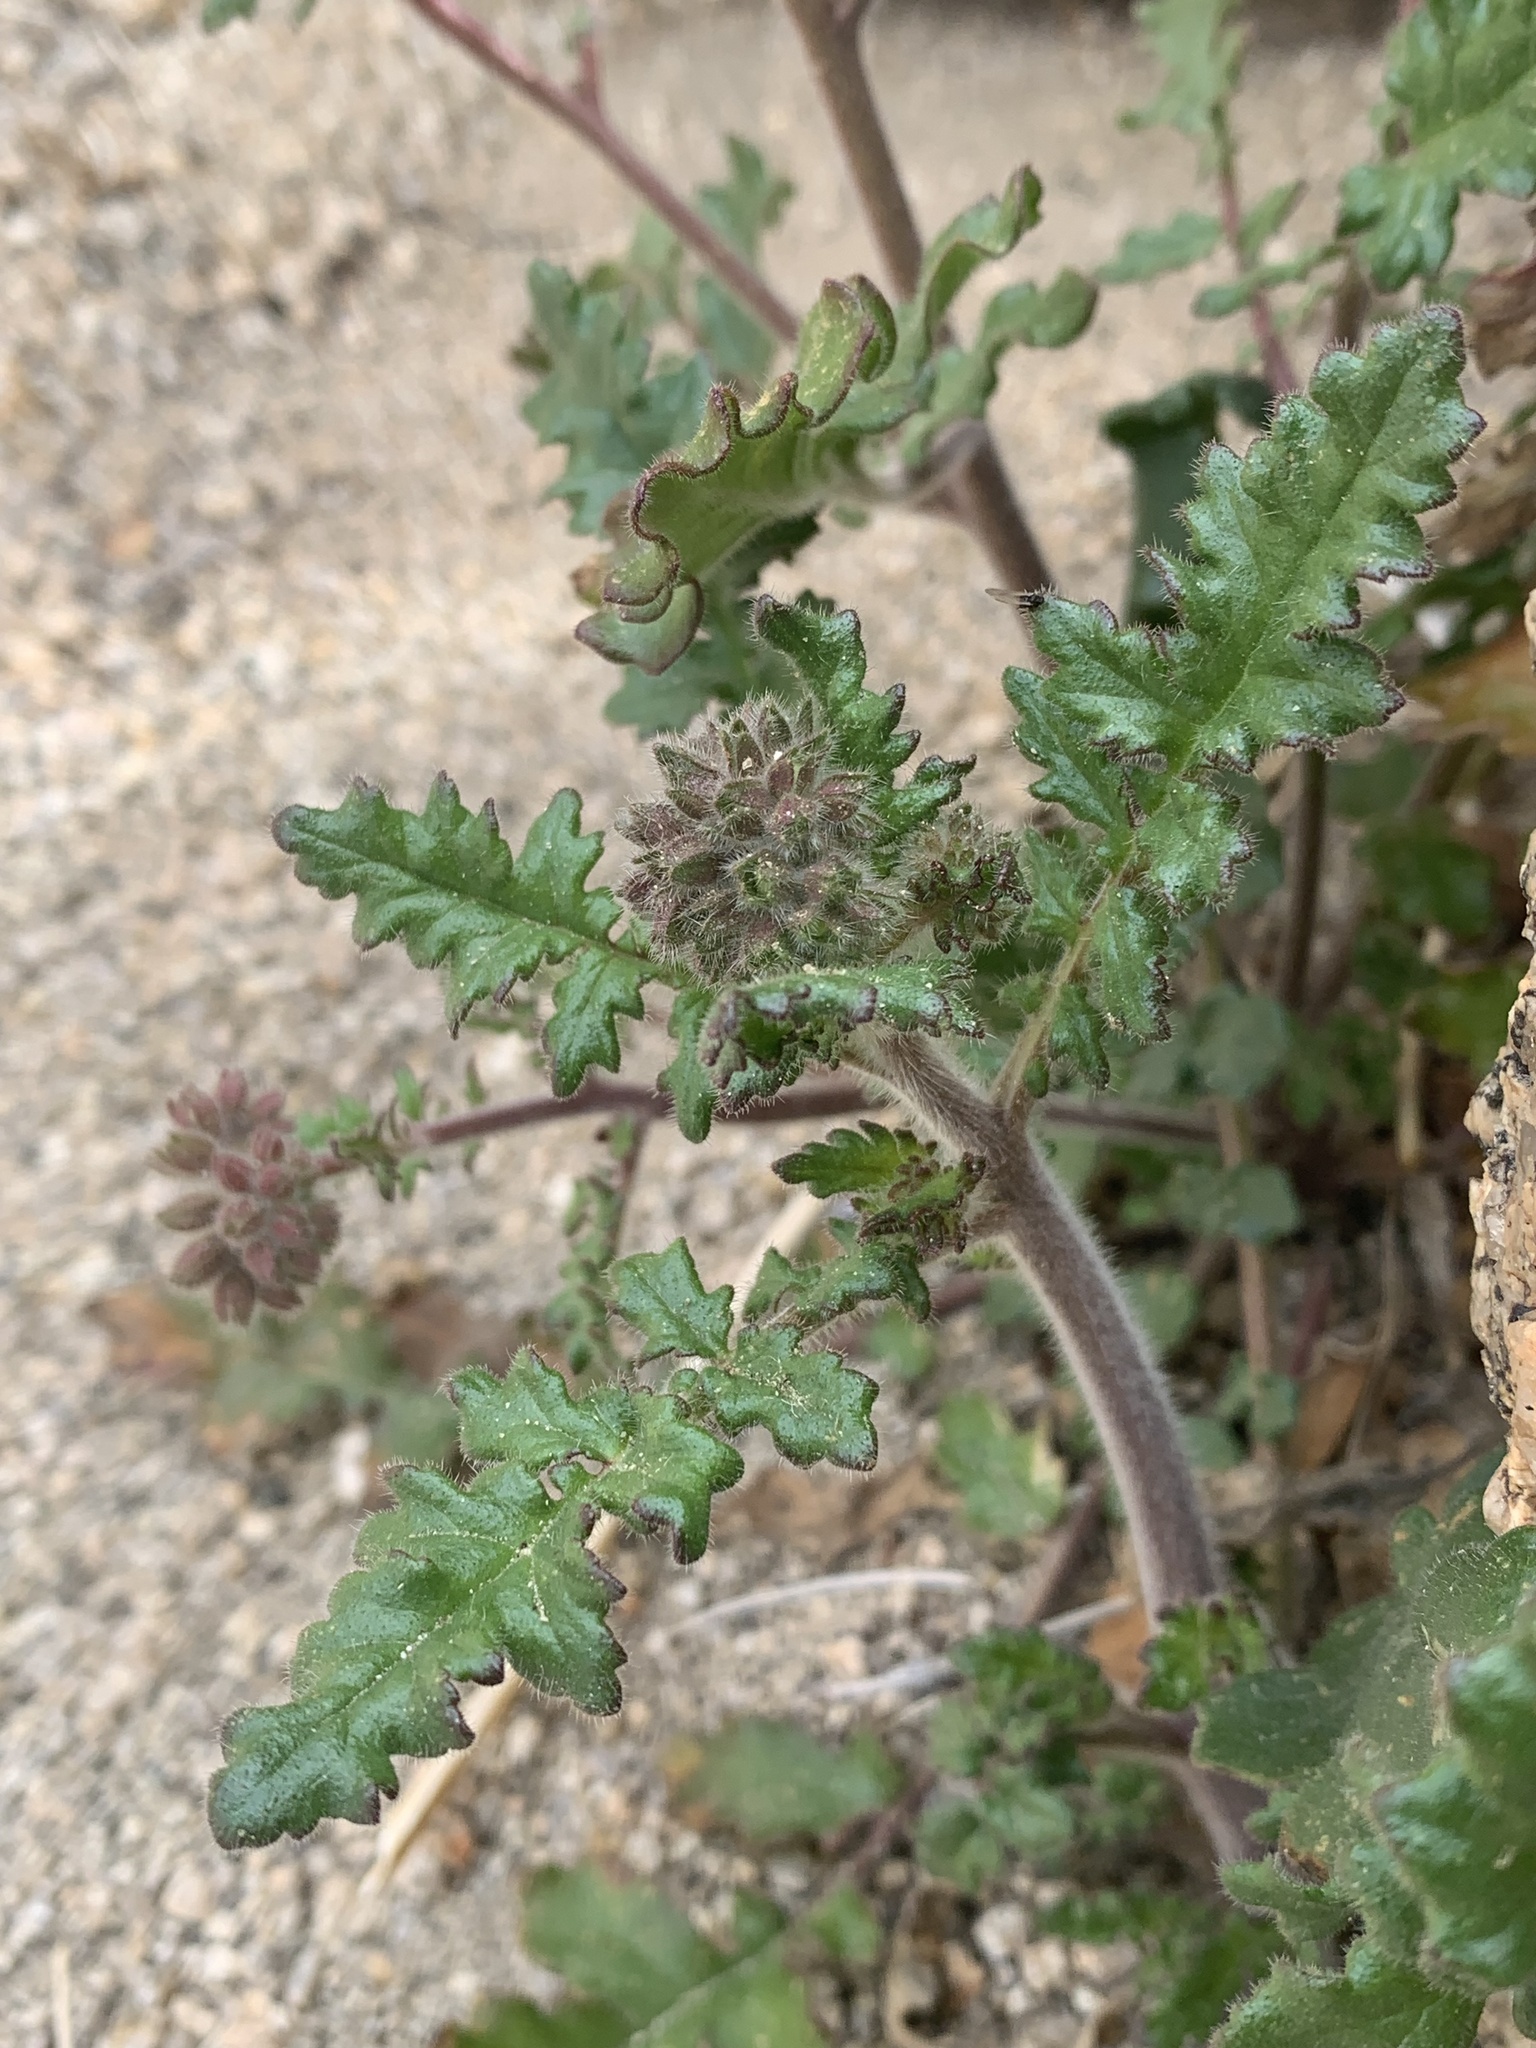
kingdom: Plantae
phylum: Tracheophyta
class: Magnoliopsida
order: Boraginales
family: Hydrophyllaceae
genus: Phacelia
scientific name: Phacelia crenulata
